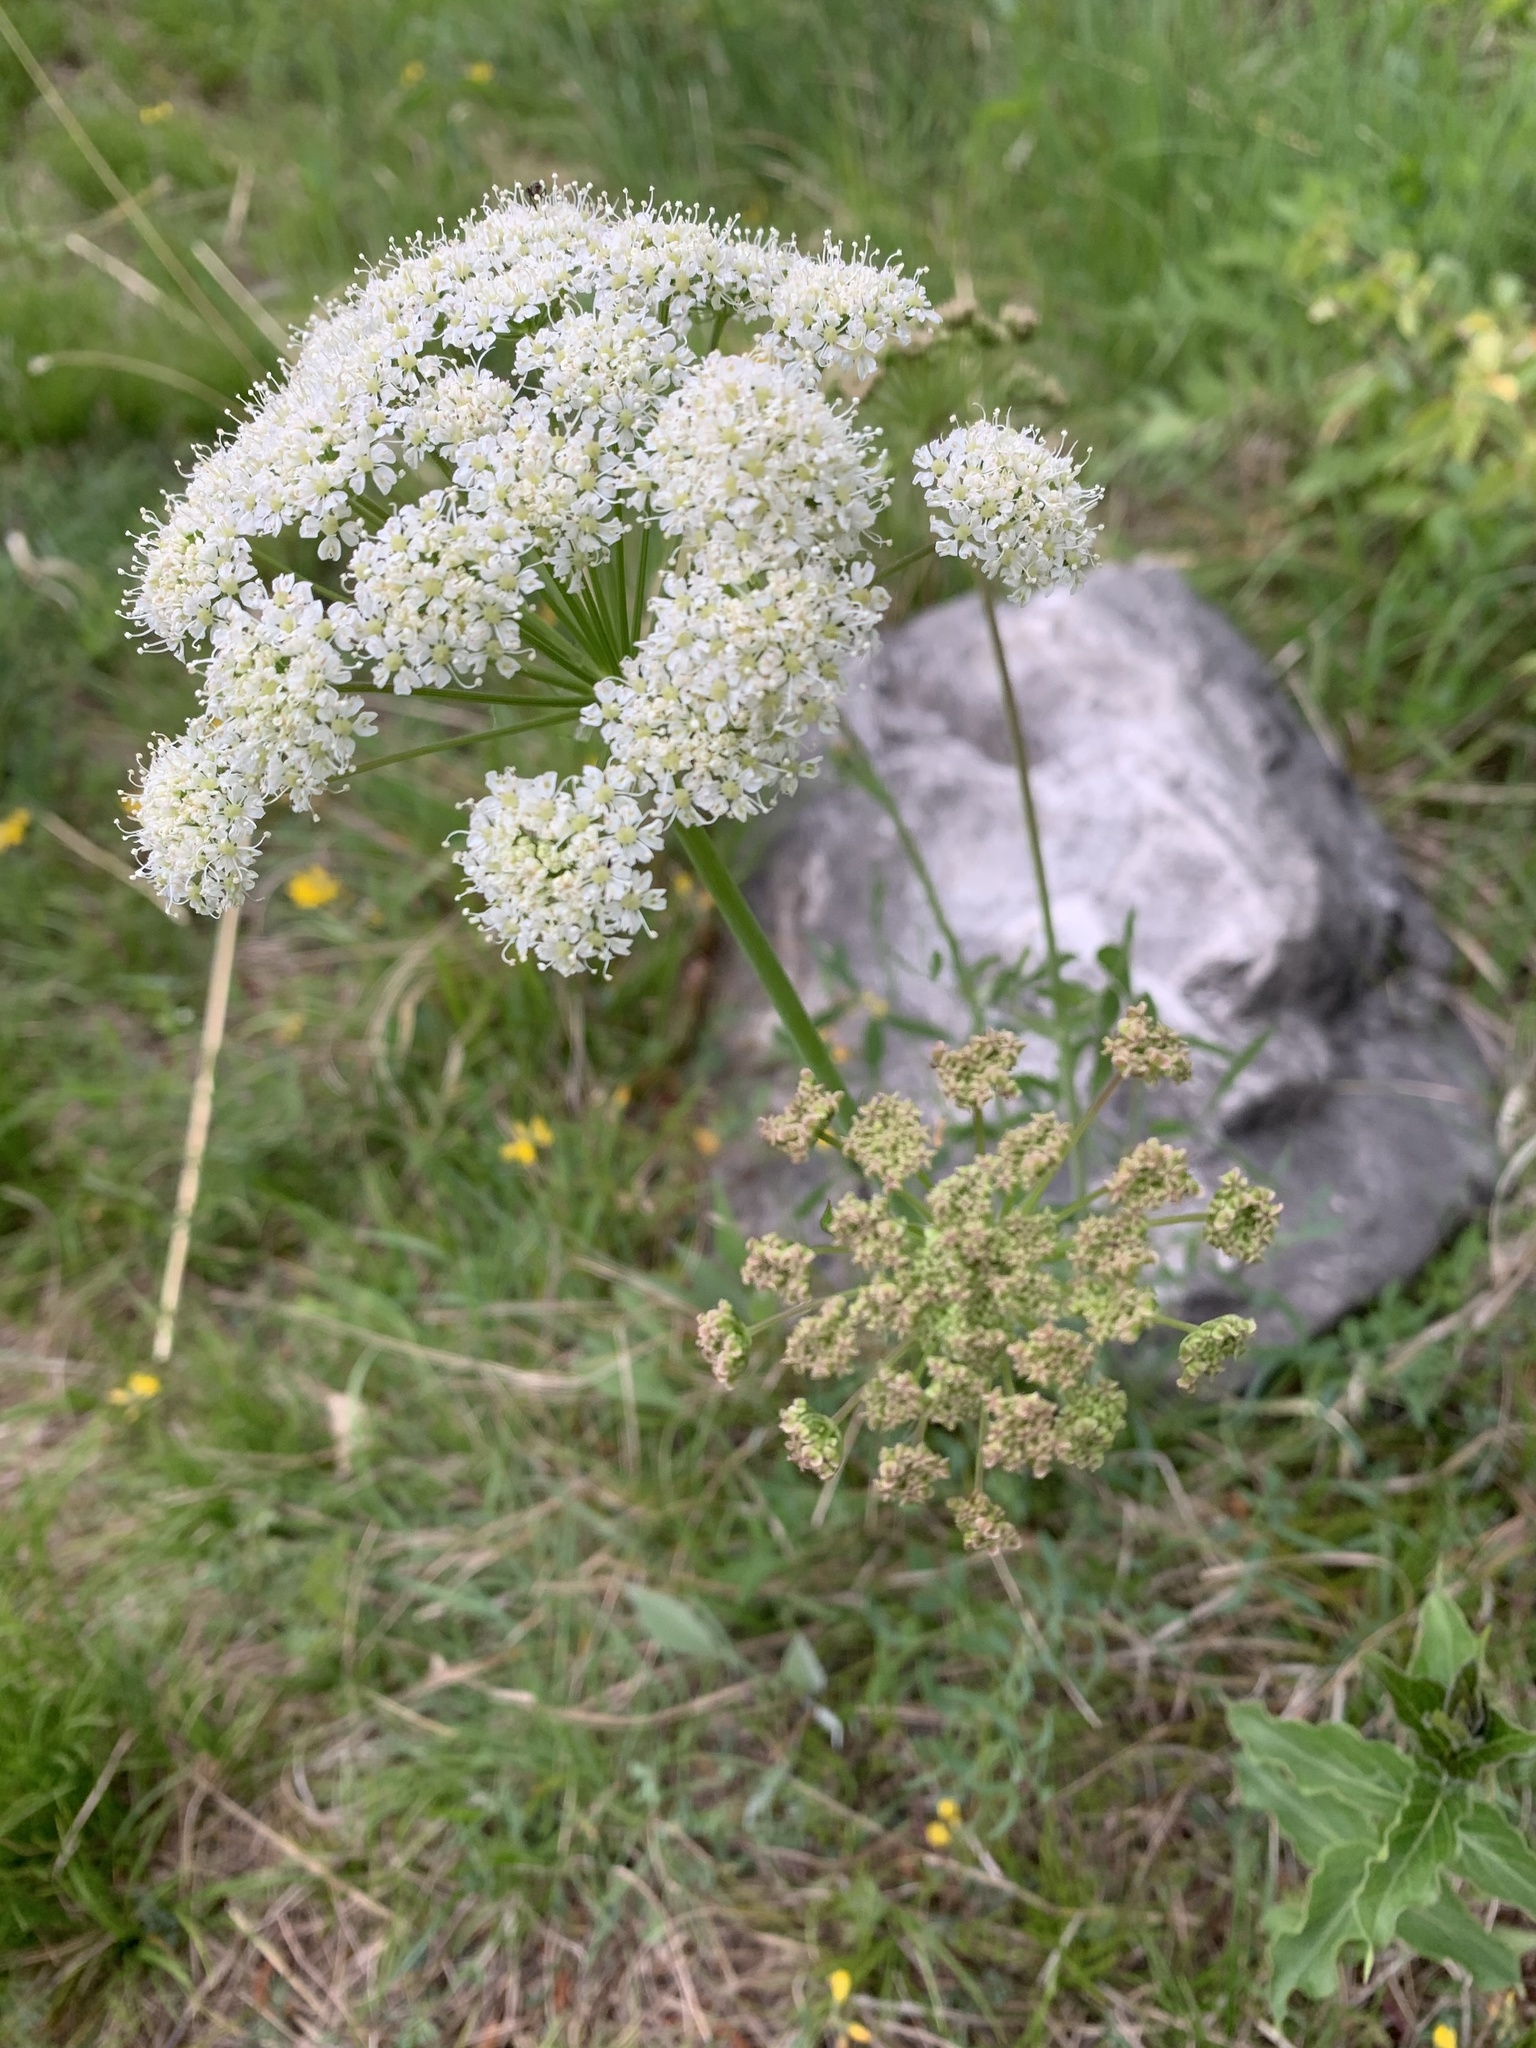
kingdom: Plantae
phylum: Tracheophyta
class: Magnoliopsida
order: Apiales
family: Apiaceae
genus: Oreoselinum
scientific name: Oreoselinum nigrum
